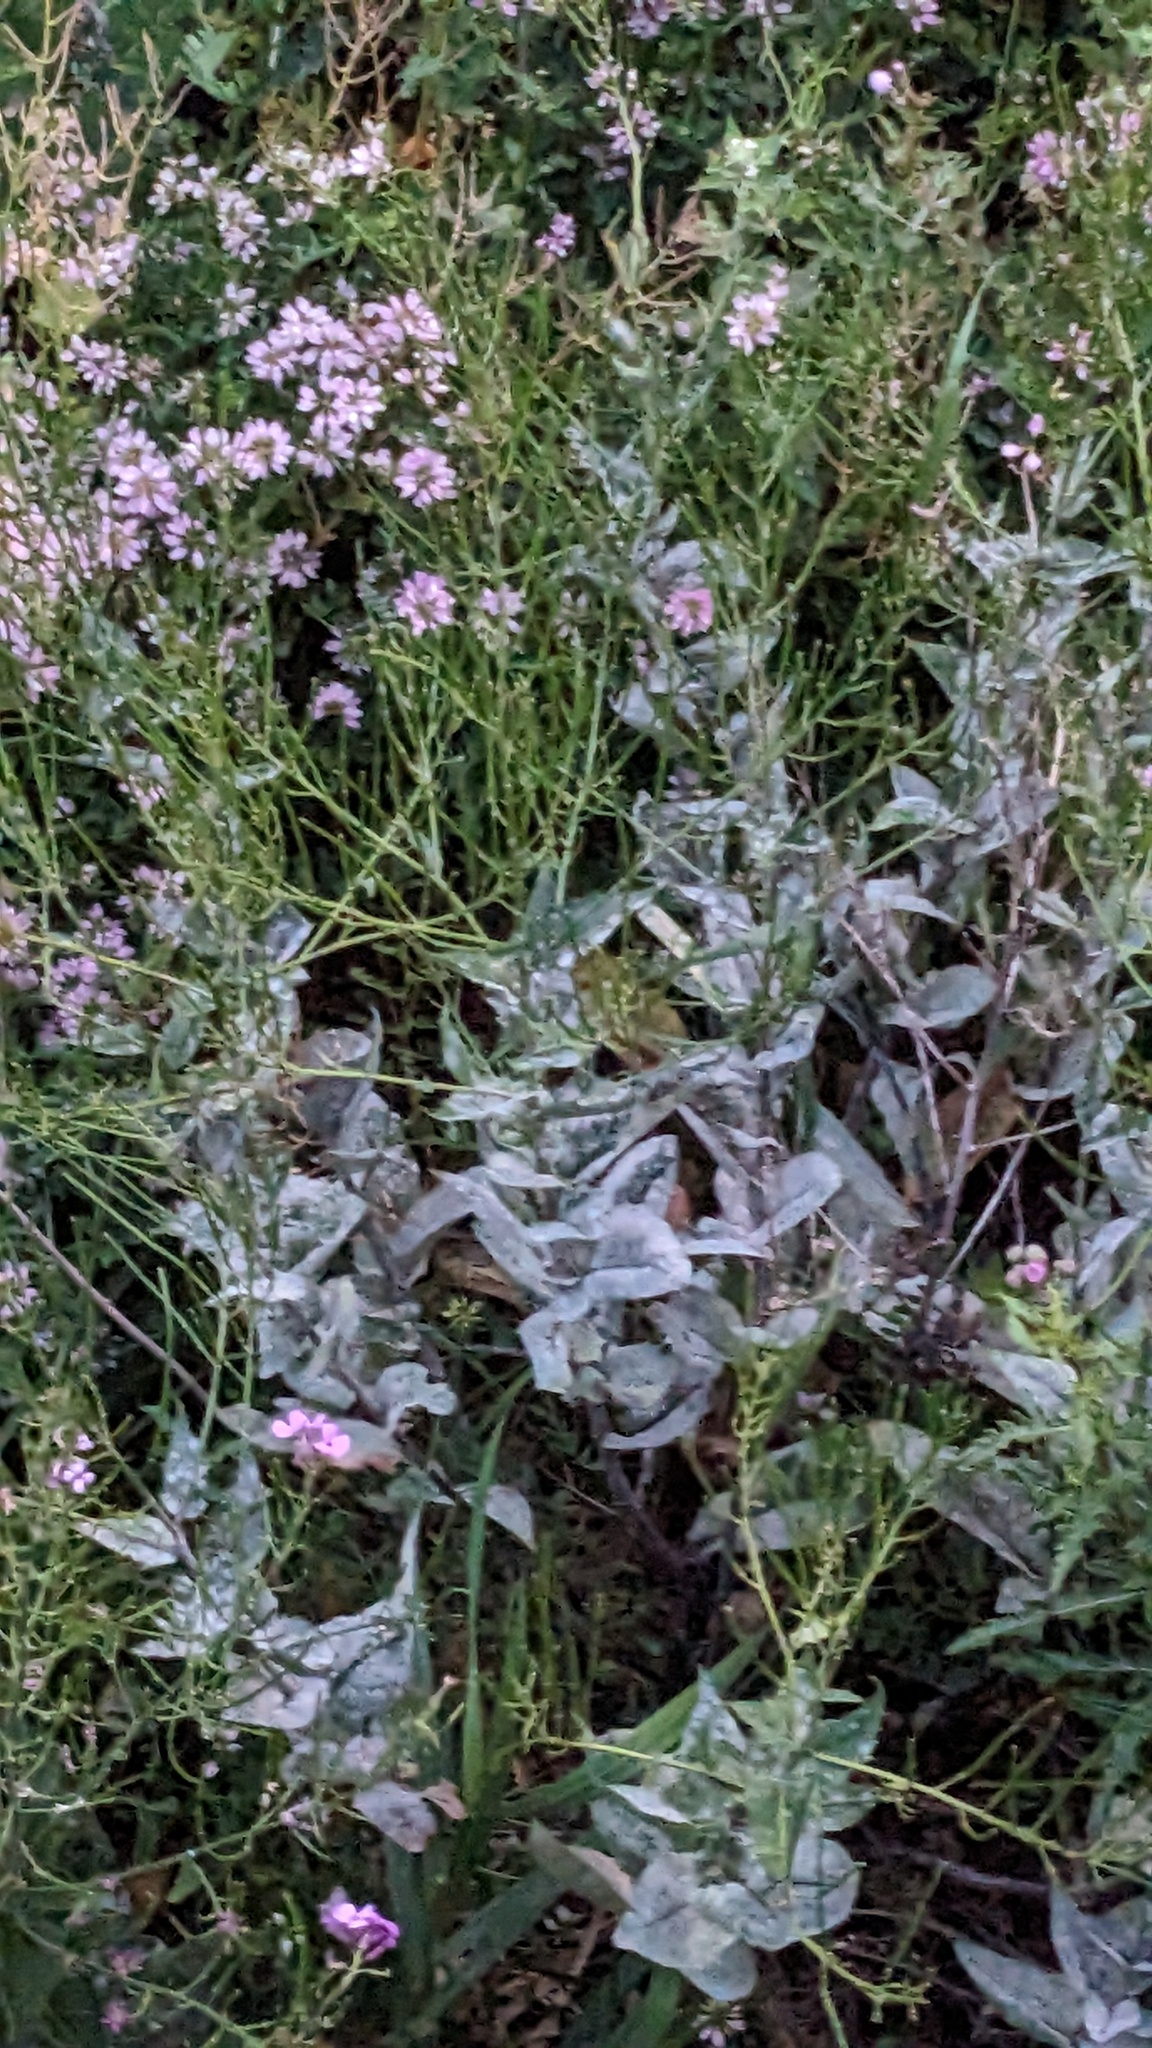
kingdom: Fungi
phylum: Ascomycota
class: Leotiomycetes
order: Helotiales
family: Erysiphaceae
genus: Erysiphe
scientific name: Erysiphe cruciferarum
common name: Brassica powdery mildew
